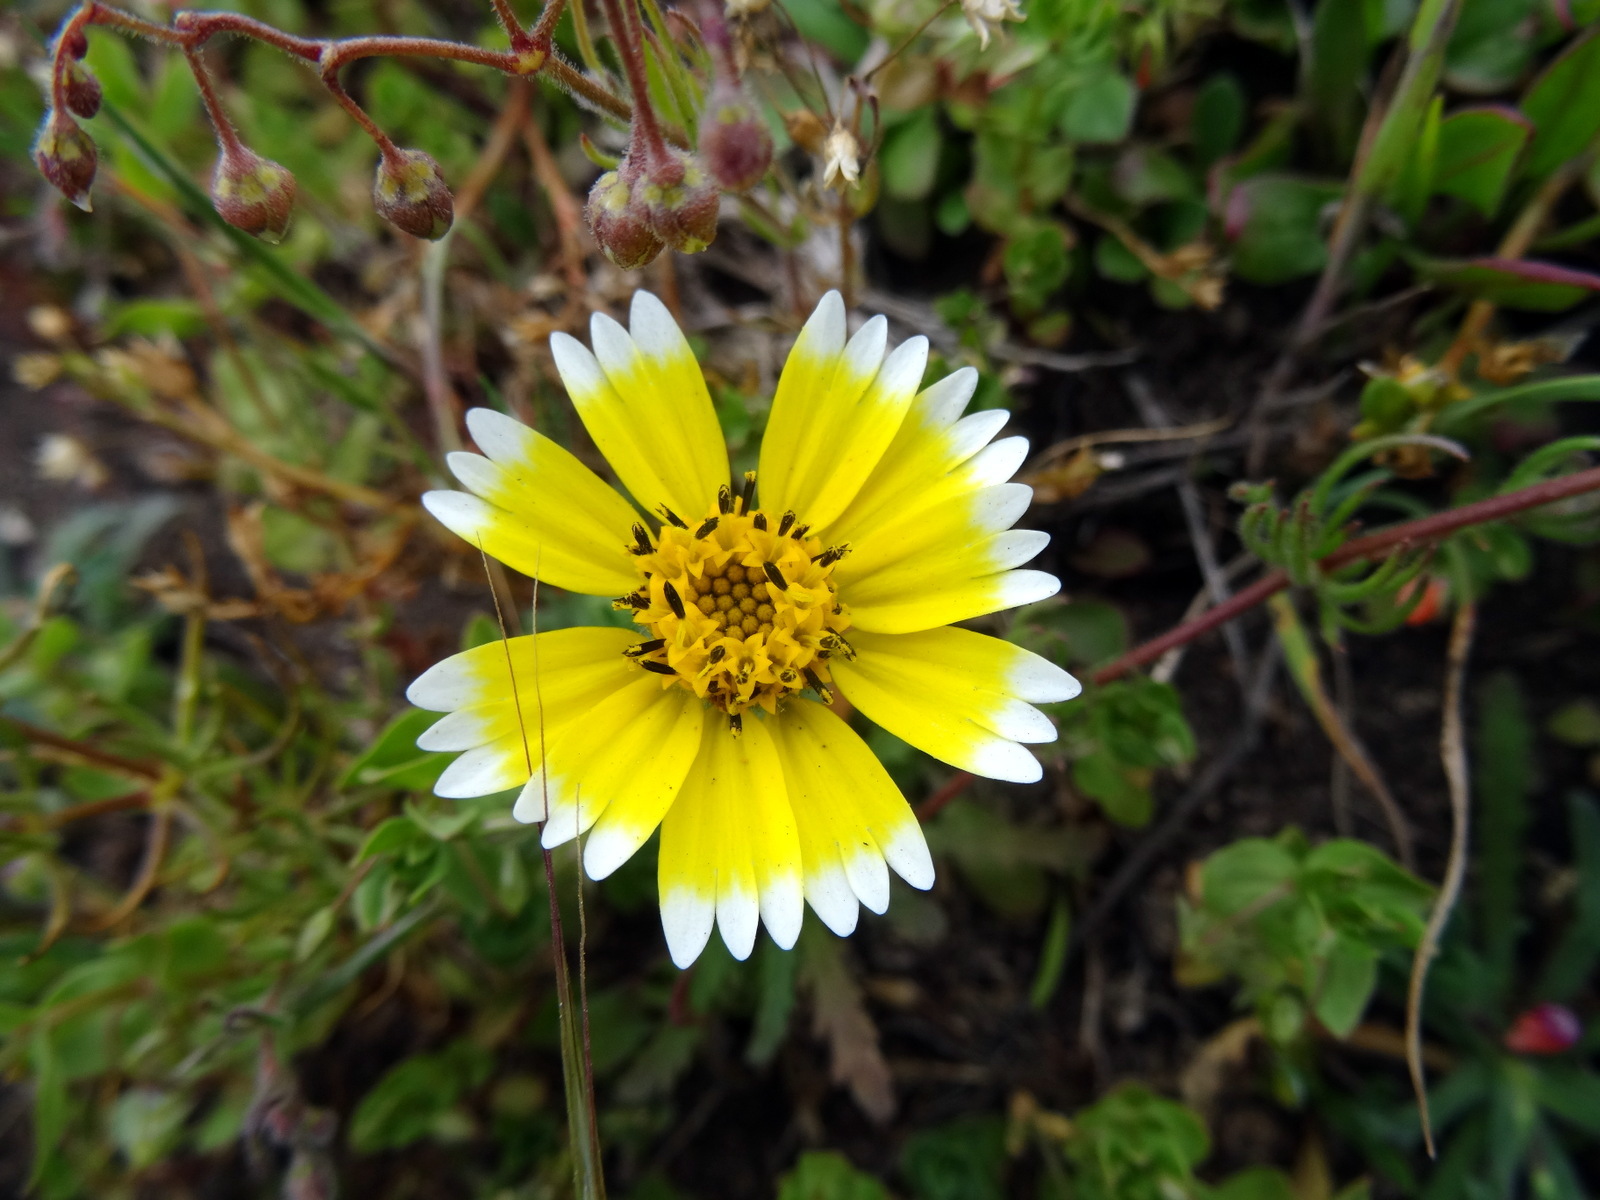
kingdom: Plantae
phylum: Tracheophyta
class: Magnoliopsida
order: Asterales
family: Asteraceae
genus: Layia
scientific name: Layia platyglossa
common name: Tidy-tips
